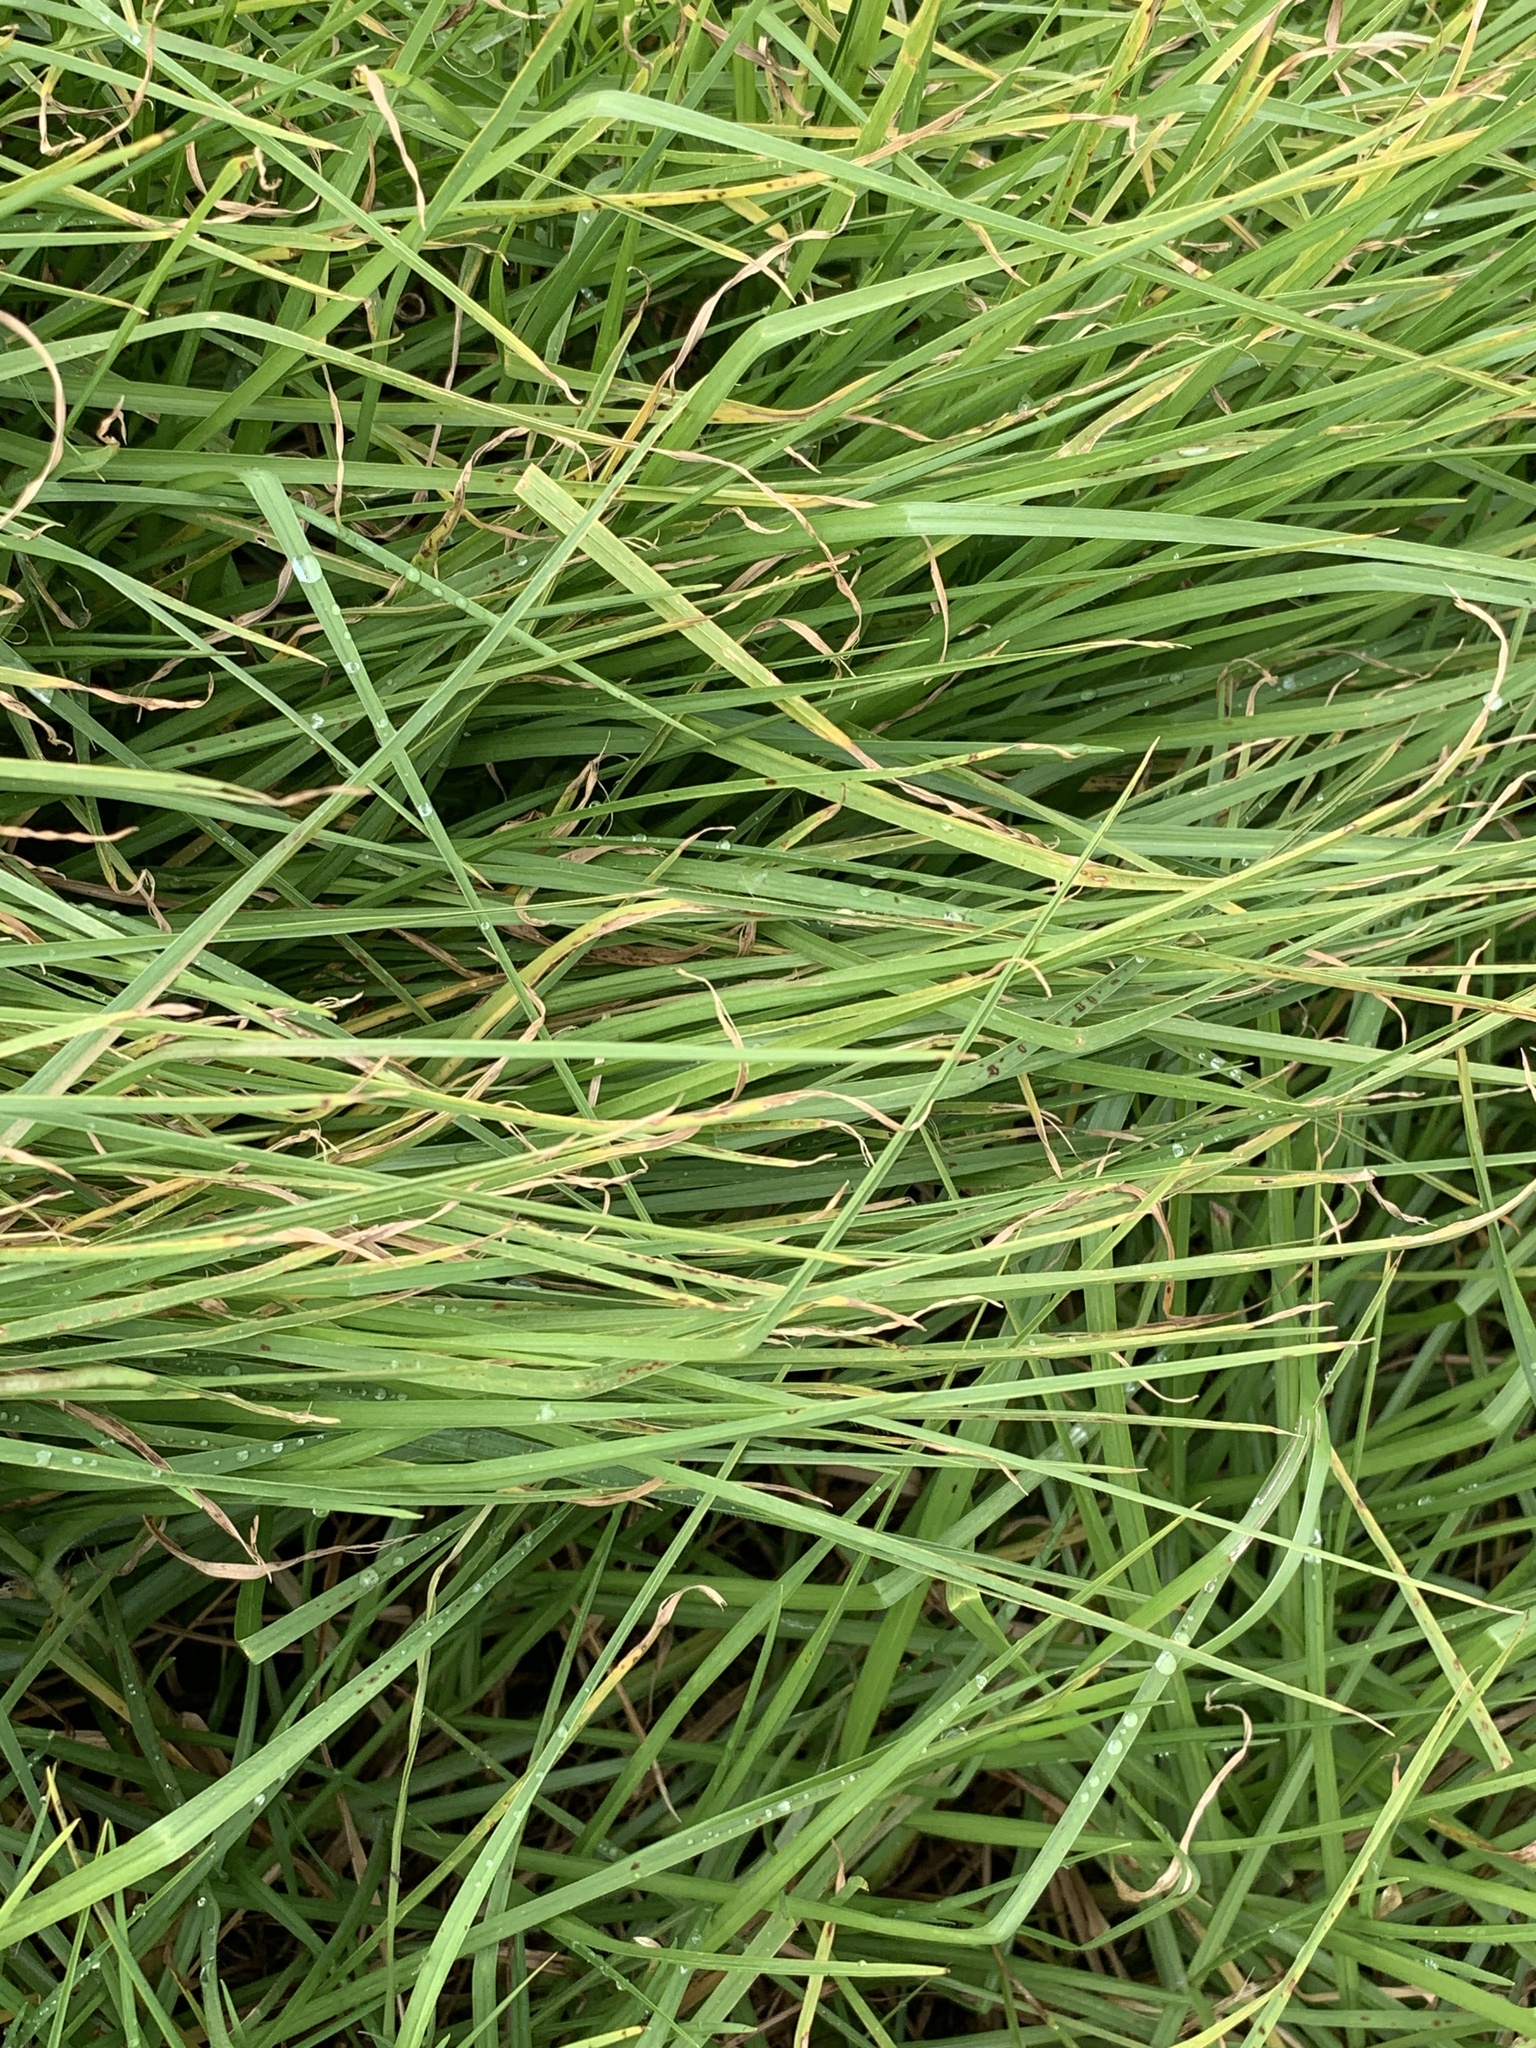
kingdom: Plantae
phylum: Tracheophyta
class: Liliopsida
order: Poales
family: Poaceae
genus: Cenchrus
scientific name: Cenchrus clandestinus
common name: Kikuyugrass
